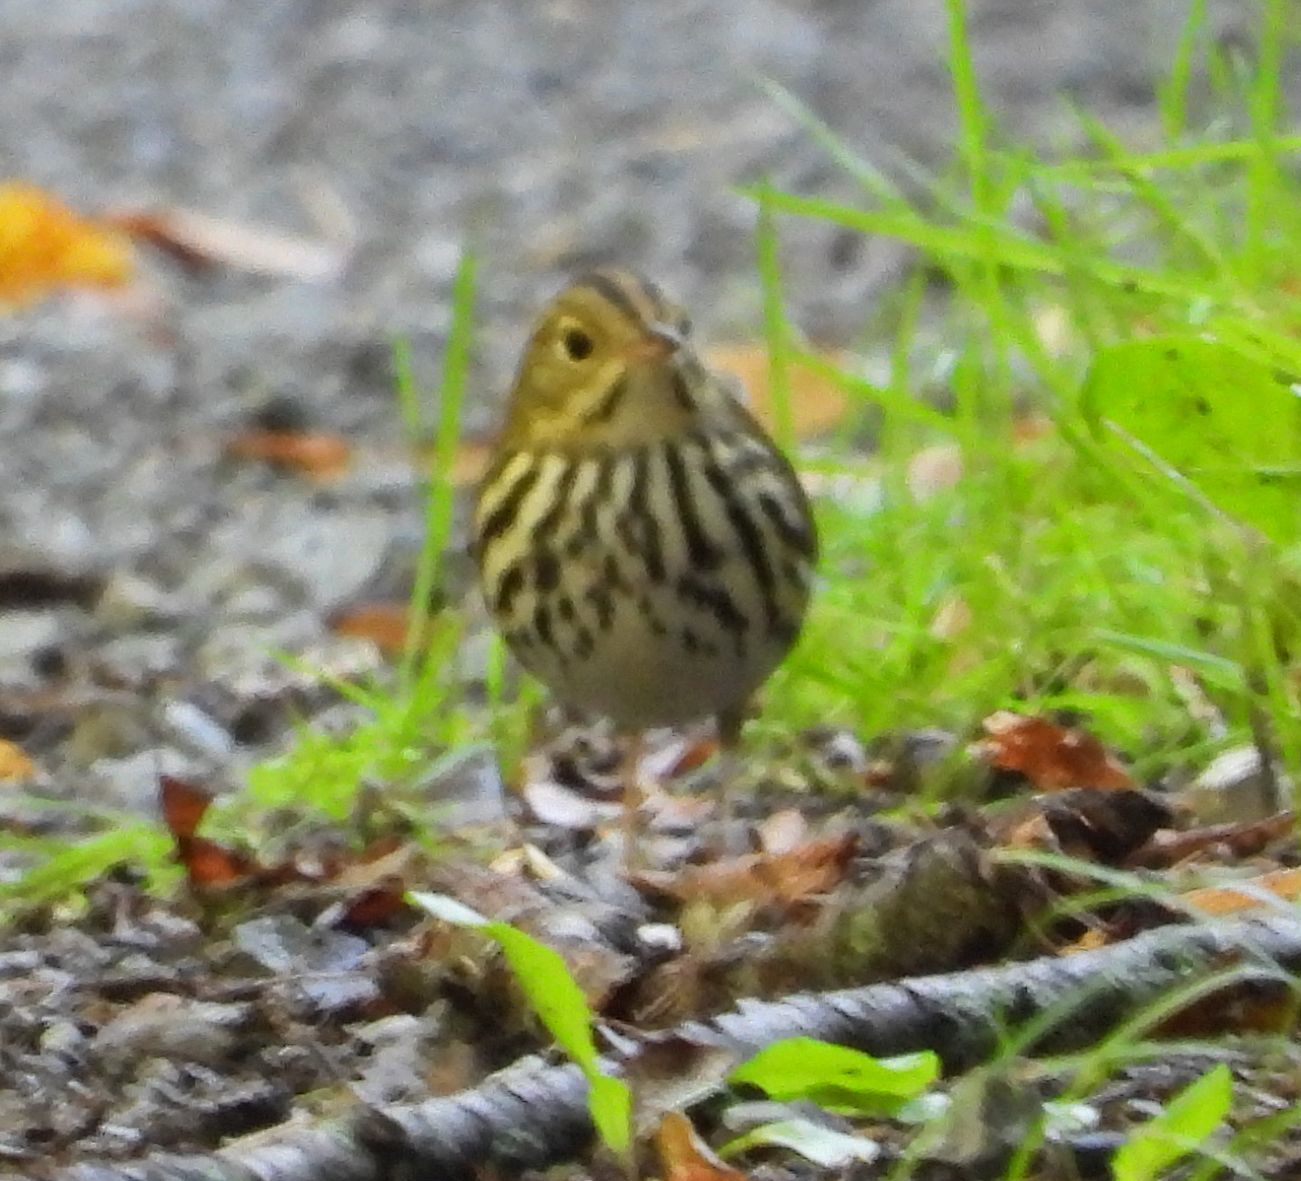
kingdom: Animalia
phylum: Chordata
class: Aves
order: Passeriformes
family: Parulidae
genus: Seiurus
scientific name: Seiurus aurocapilla
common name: Ovenbird
